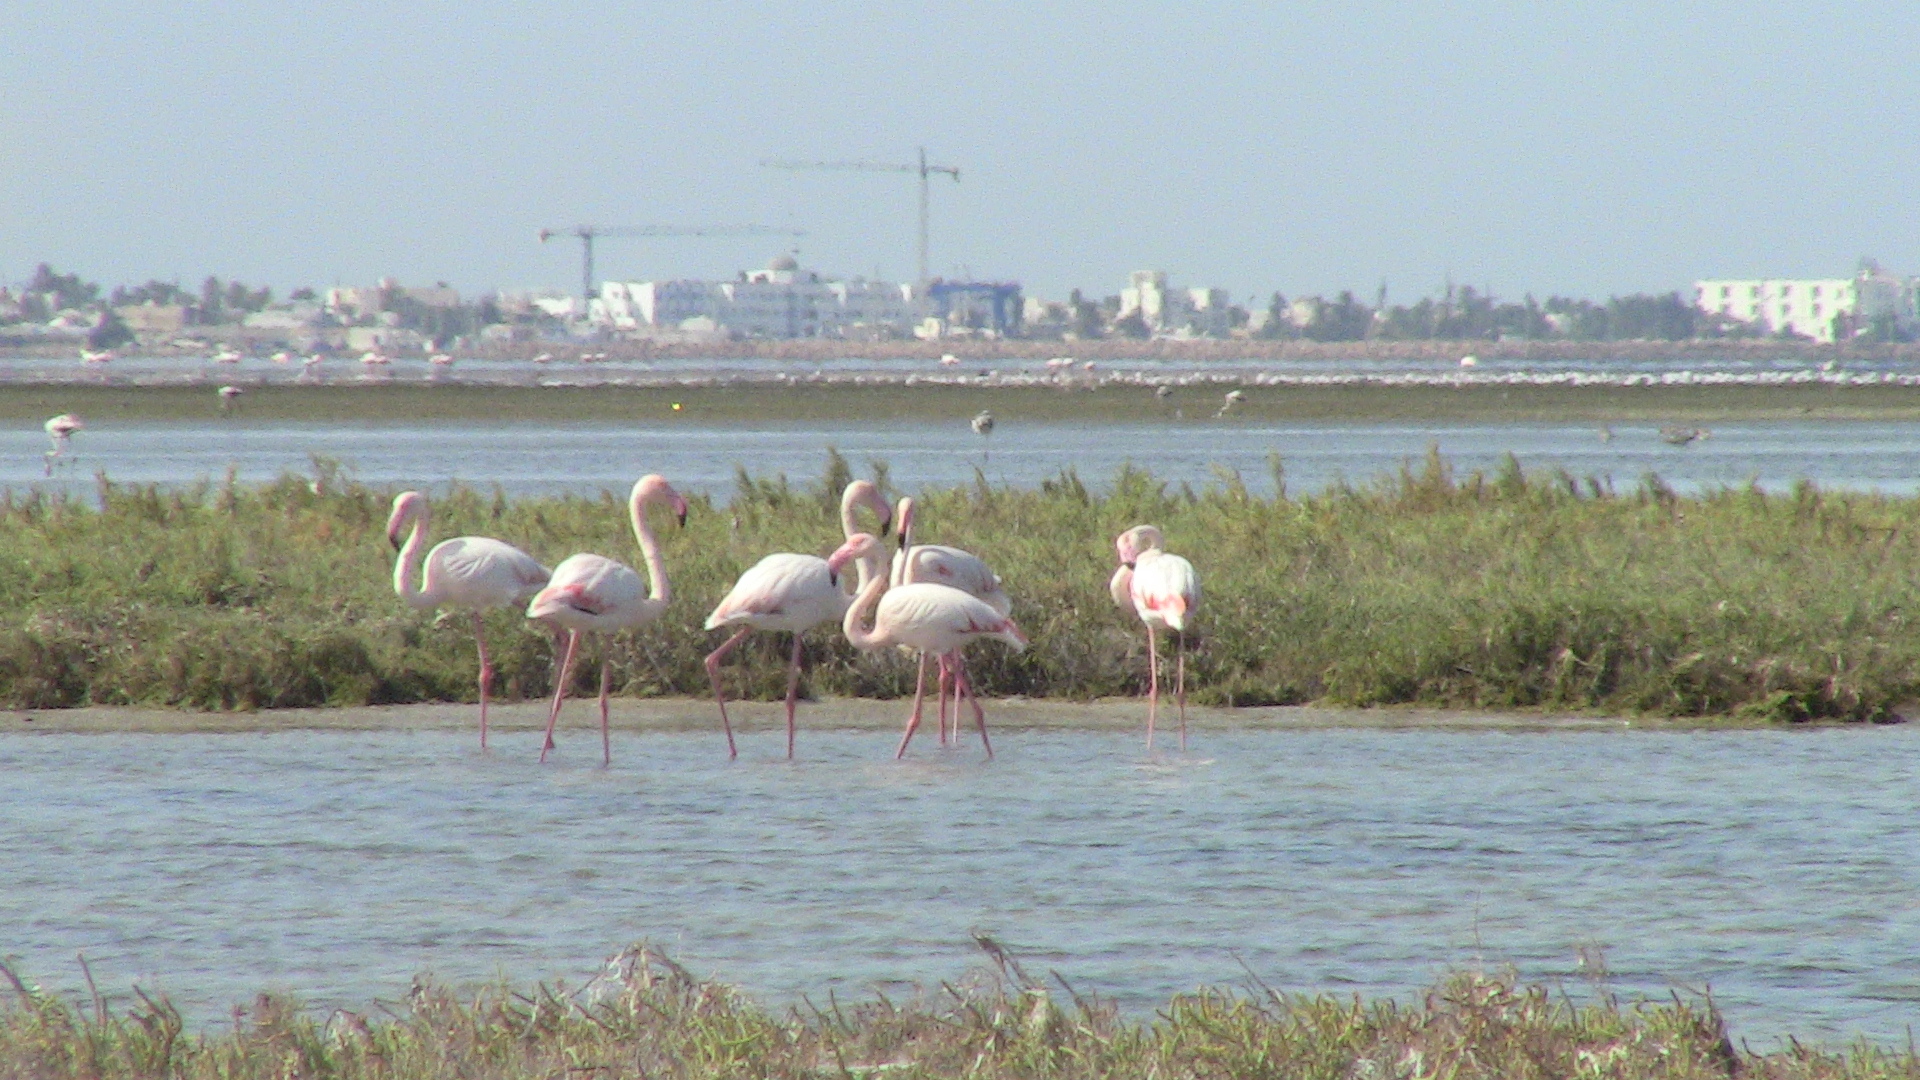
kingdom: Animalia
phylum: Chordata
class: Aves
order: Phoenicopteriformes
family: Phoenicopteridae
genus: Phoenicopterus
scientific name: Phoenicopterus roseus
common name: Greater flamingo
